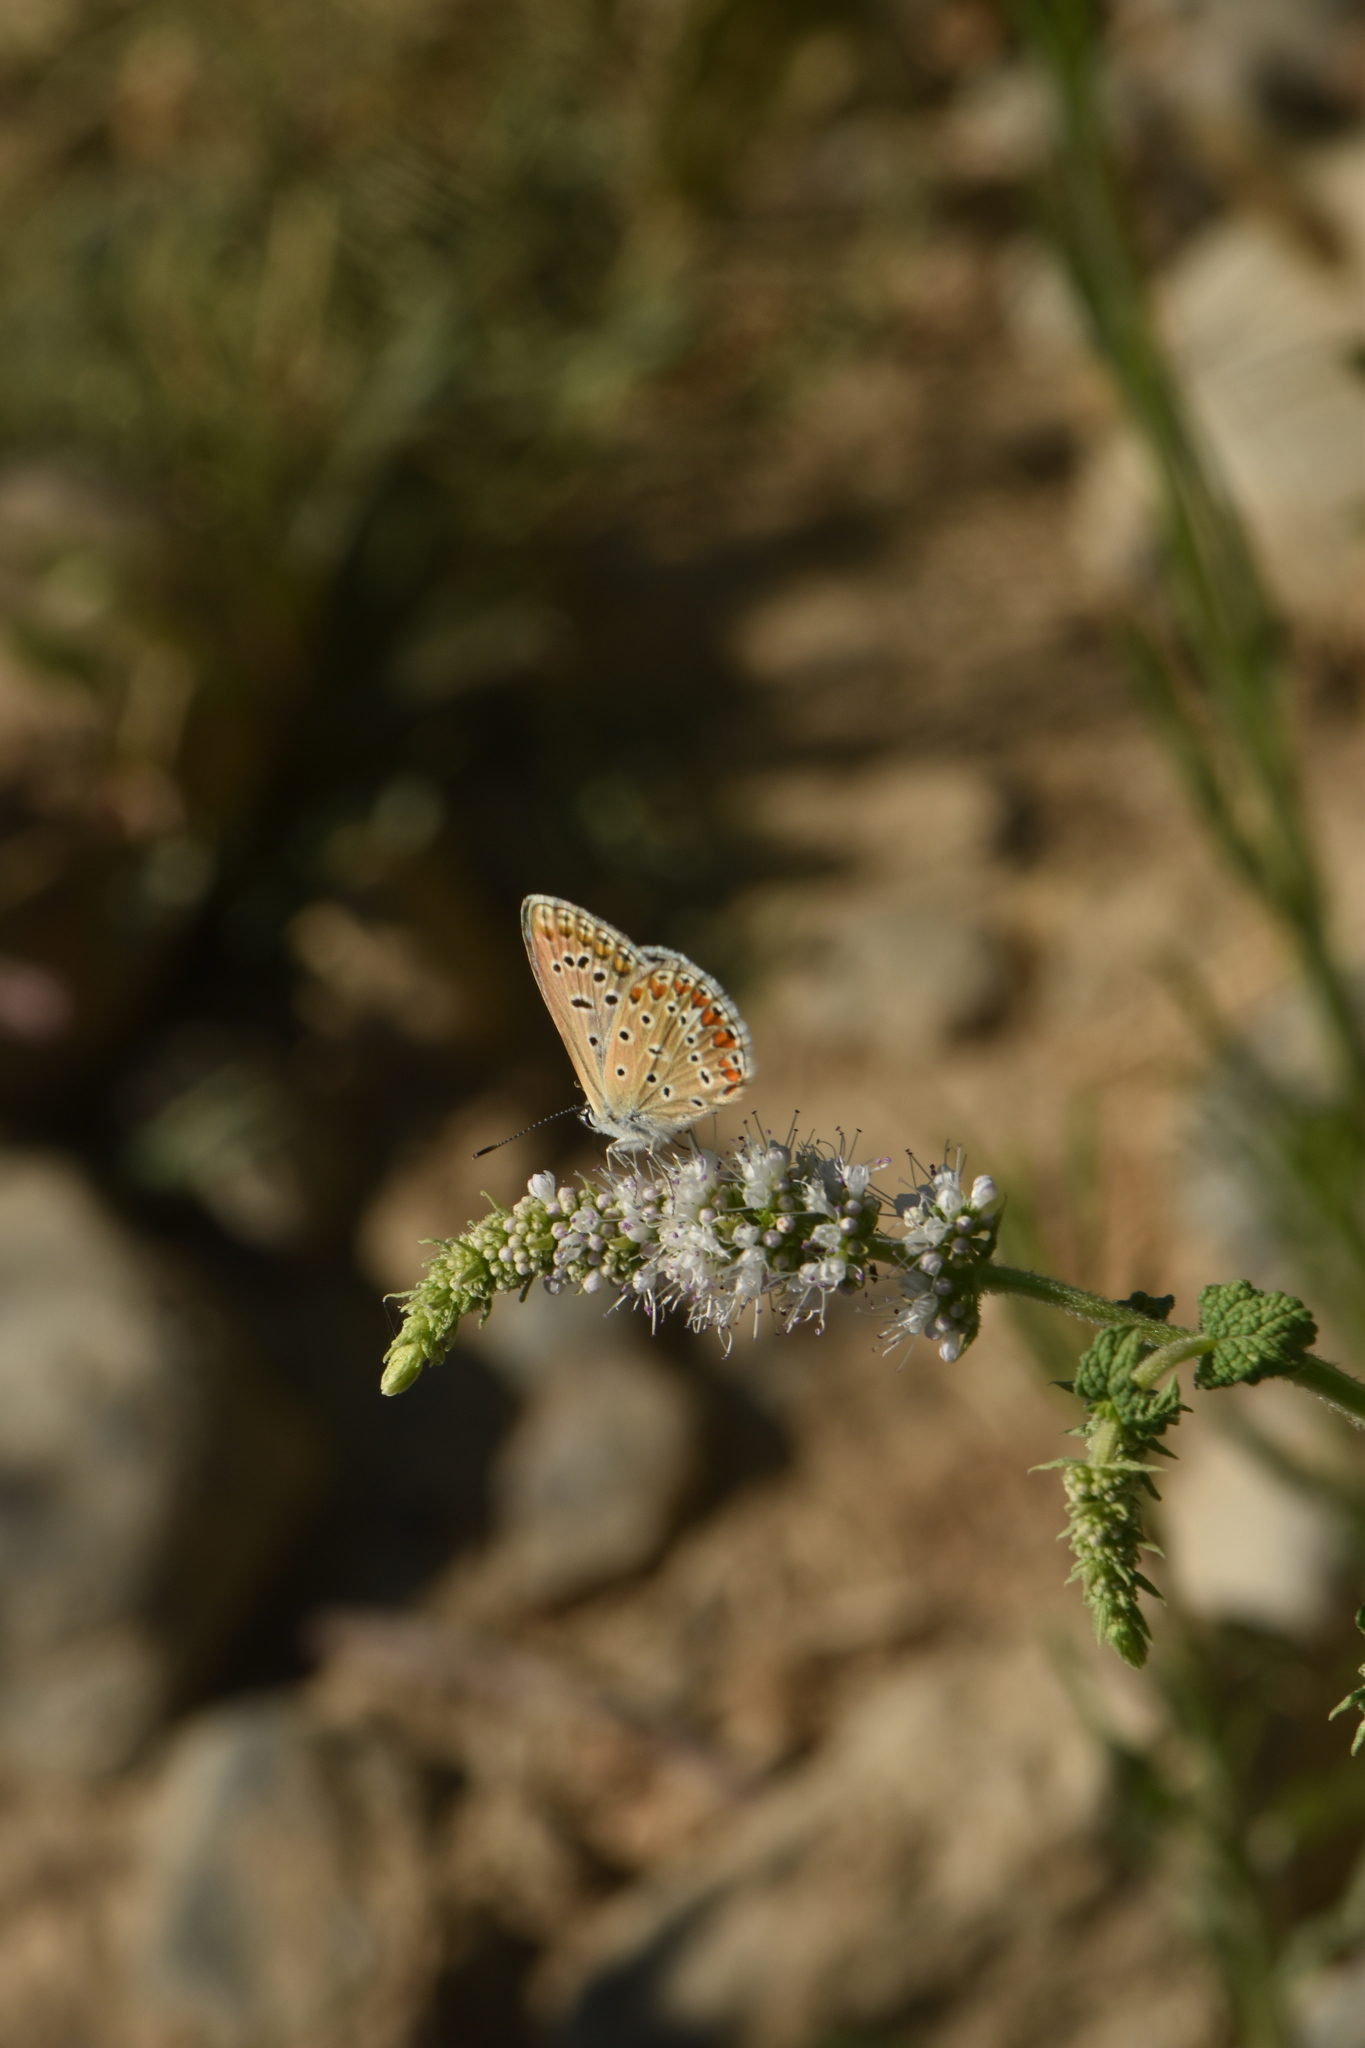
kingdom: Animalia
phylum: Arthropoda
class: Insecta
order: Lepidoptera
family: Lycaenidae
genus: Polyommatus
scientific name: Polyommatus celina
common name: Austaut's blue
